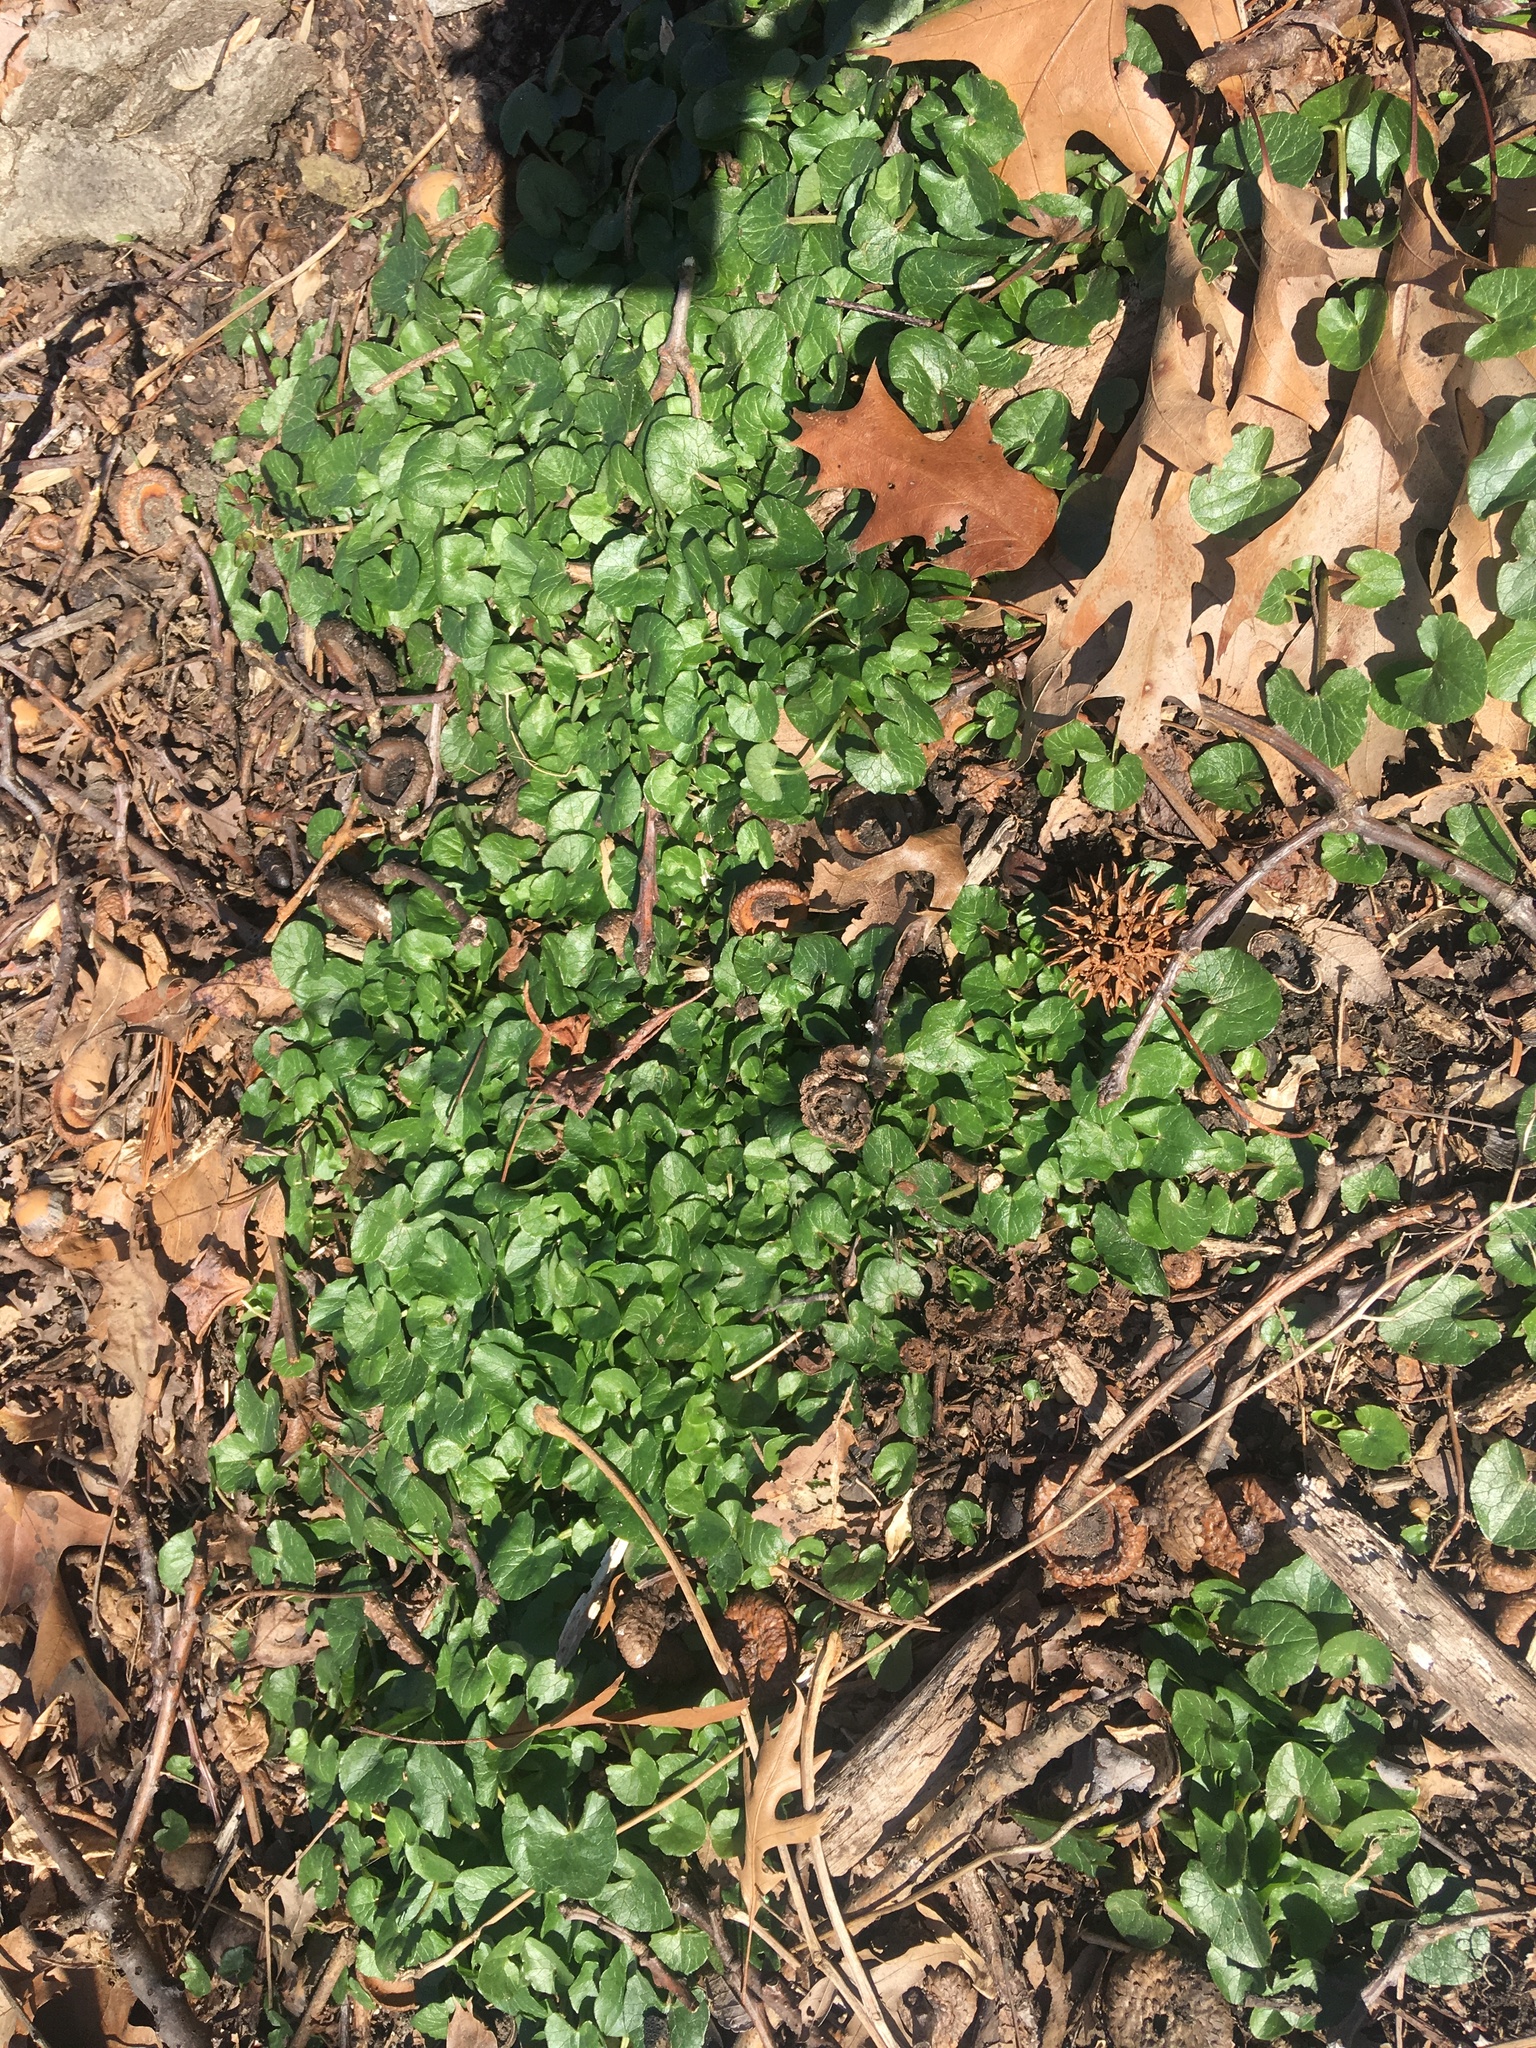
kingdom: Plantae
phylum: Tracheophyta
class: Magnoliopsida
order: Ranunculales
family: Ranunculaceae
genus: Ficaria
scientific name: Ficaria verna
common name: Lesser celandine
